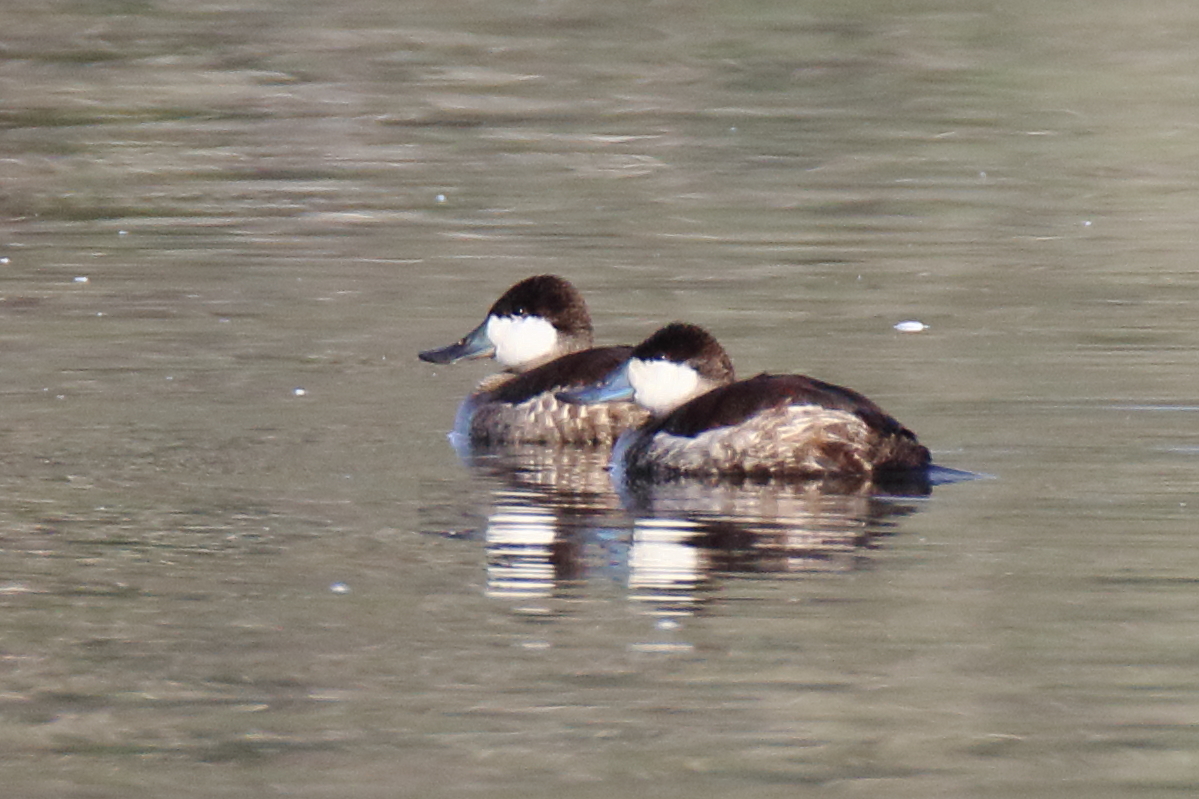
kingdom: Animalia
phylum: Chordata
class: Aves
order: Anseriformes
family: Anatidae
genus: Oxyura
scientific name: Oxyura jamaicensis
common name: Ruddy duck
